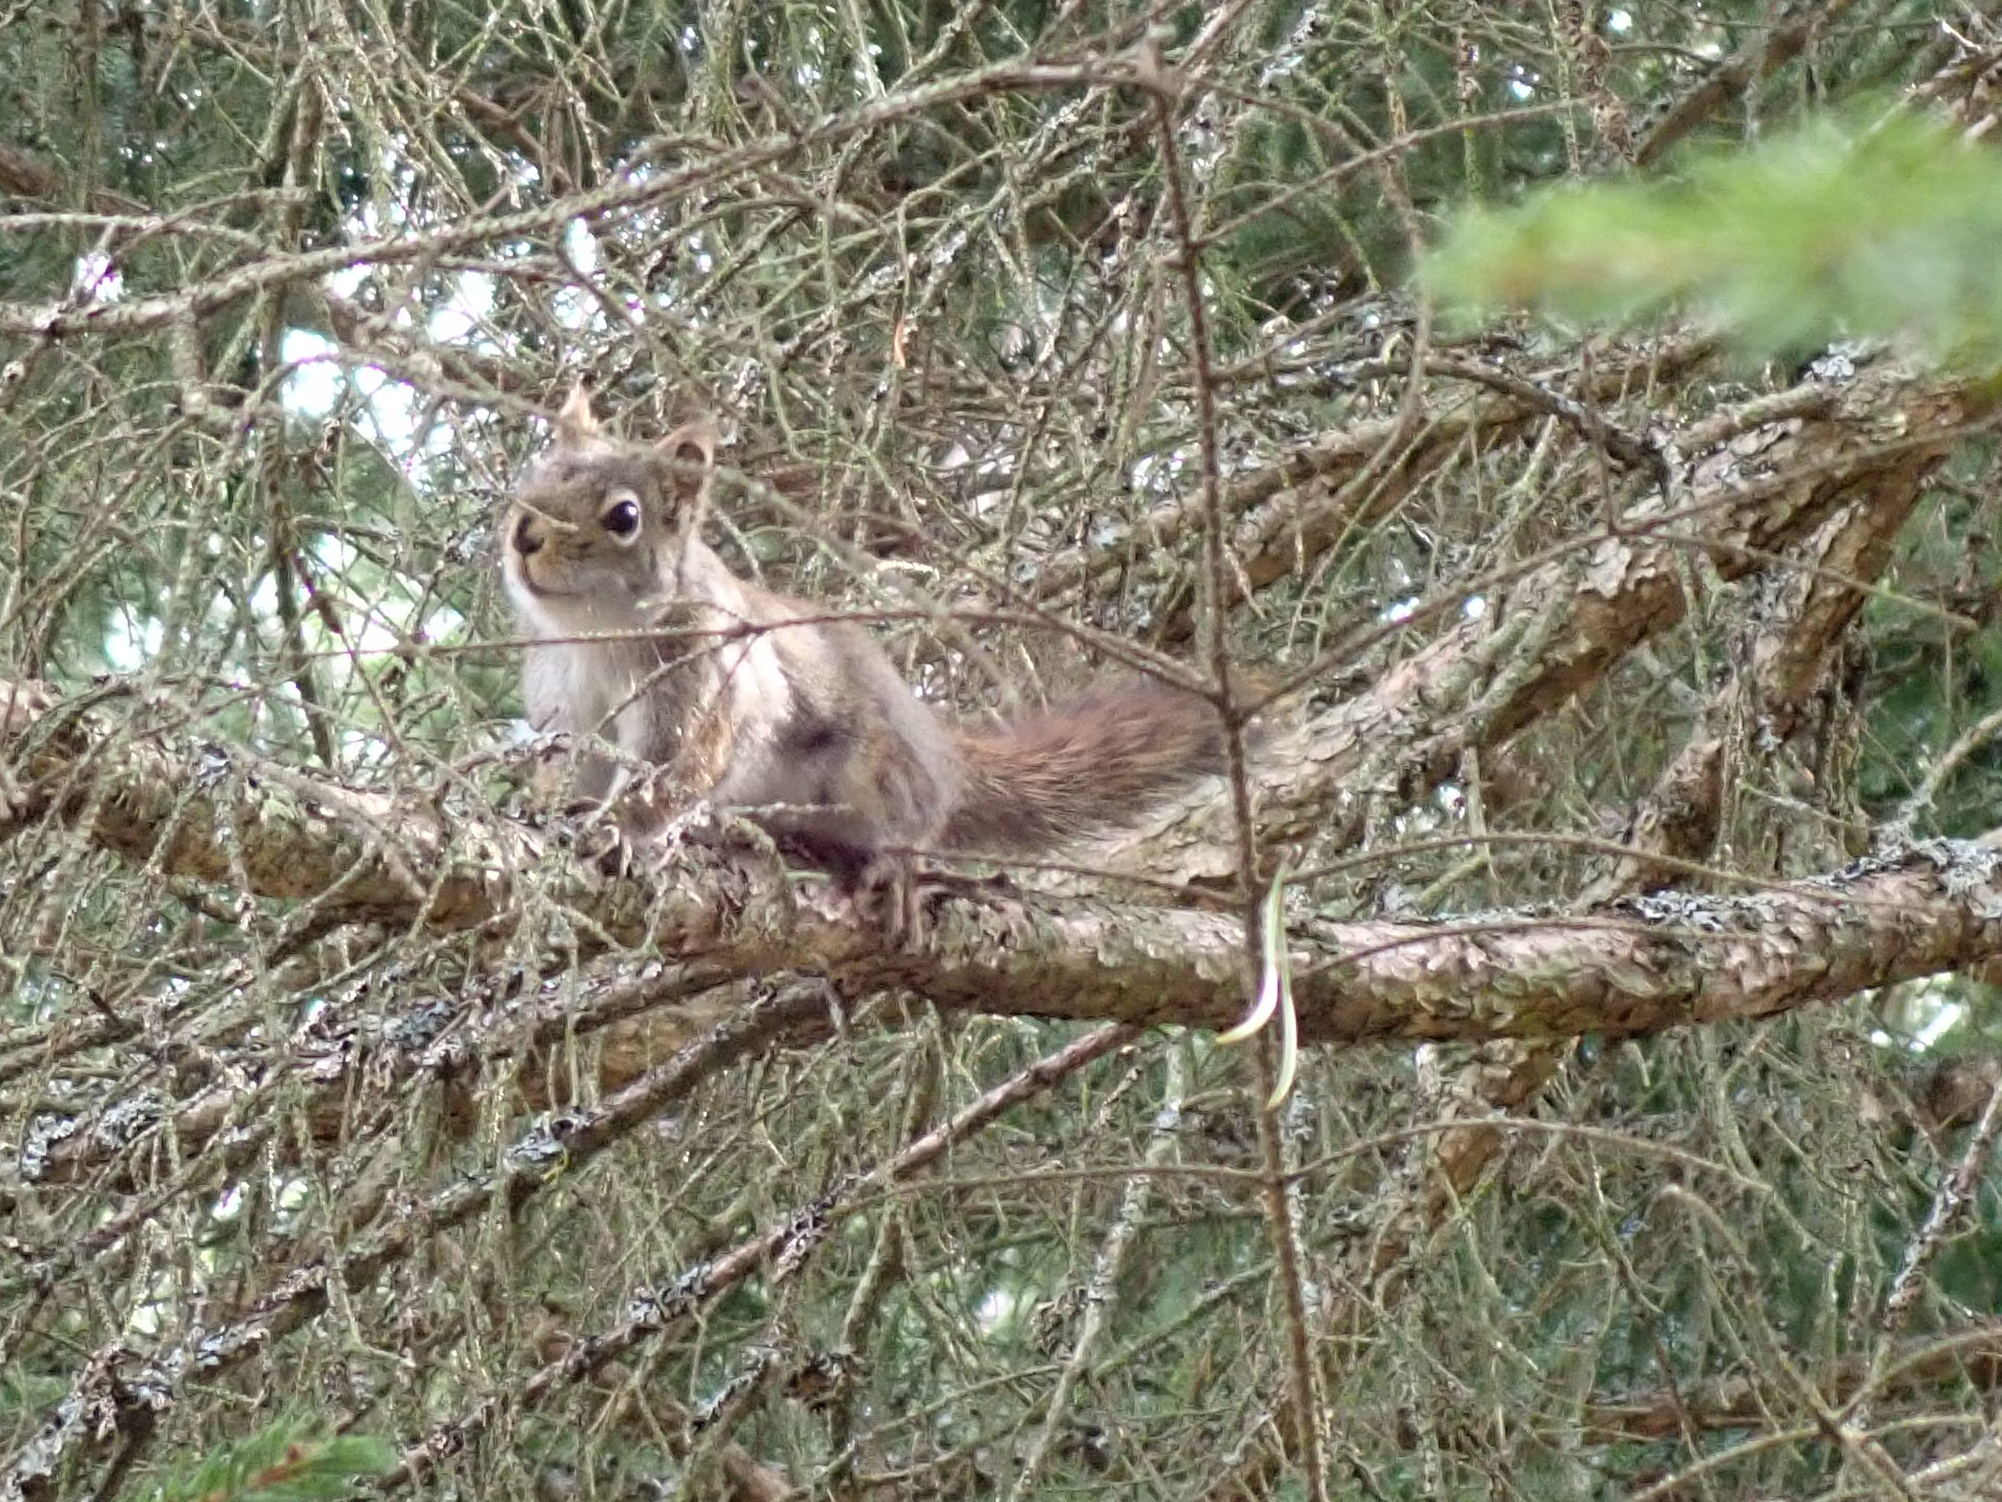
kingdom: Animalia
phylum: Chordata
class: Mammalia
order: Rodentia
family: Sciuridae
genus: Tamiasciurus
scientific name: Tamiasciurus hudsonicus
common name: Red squirrel
